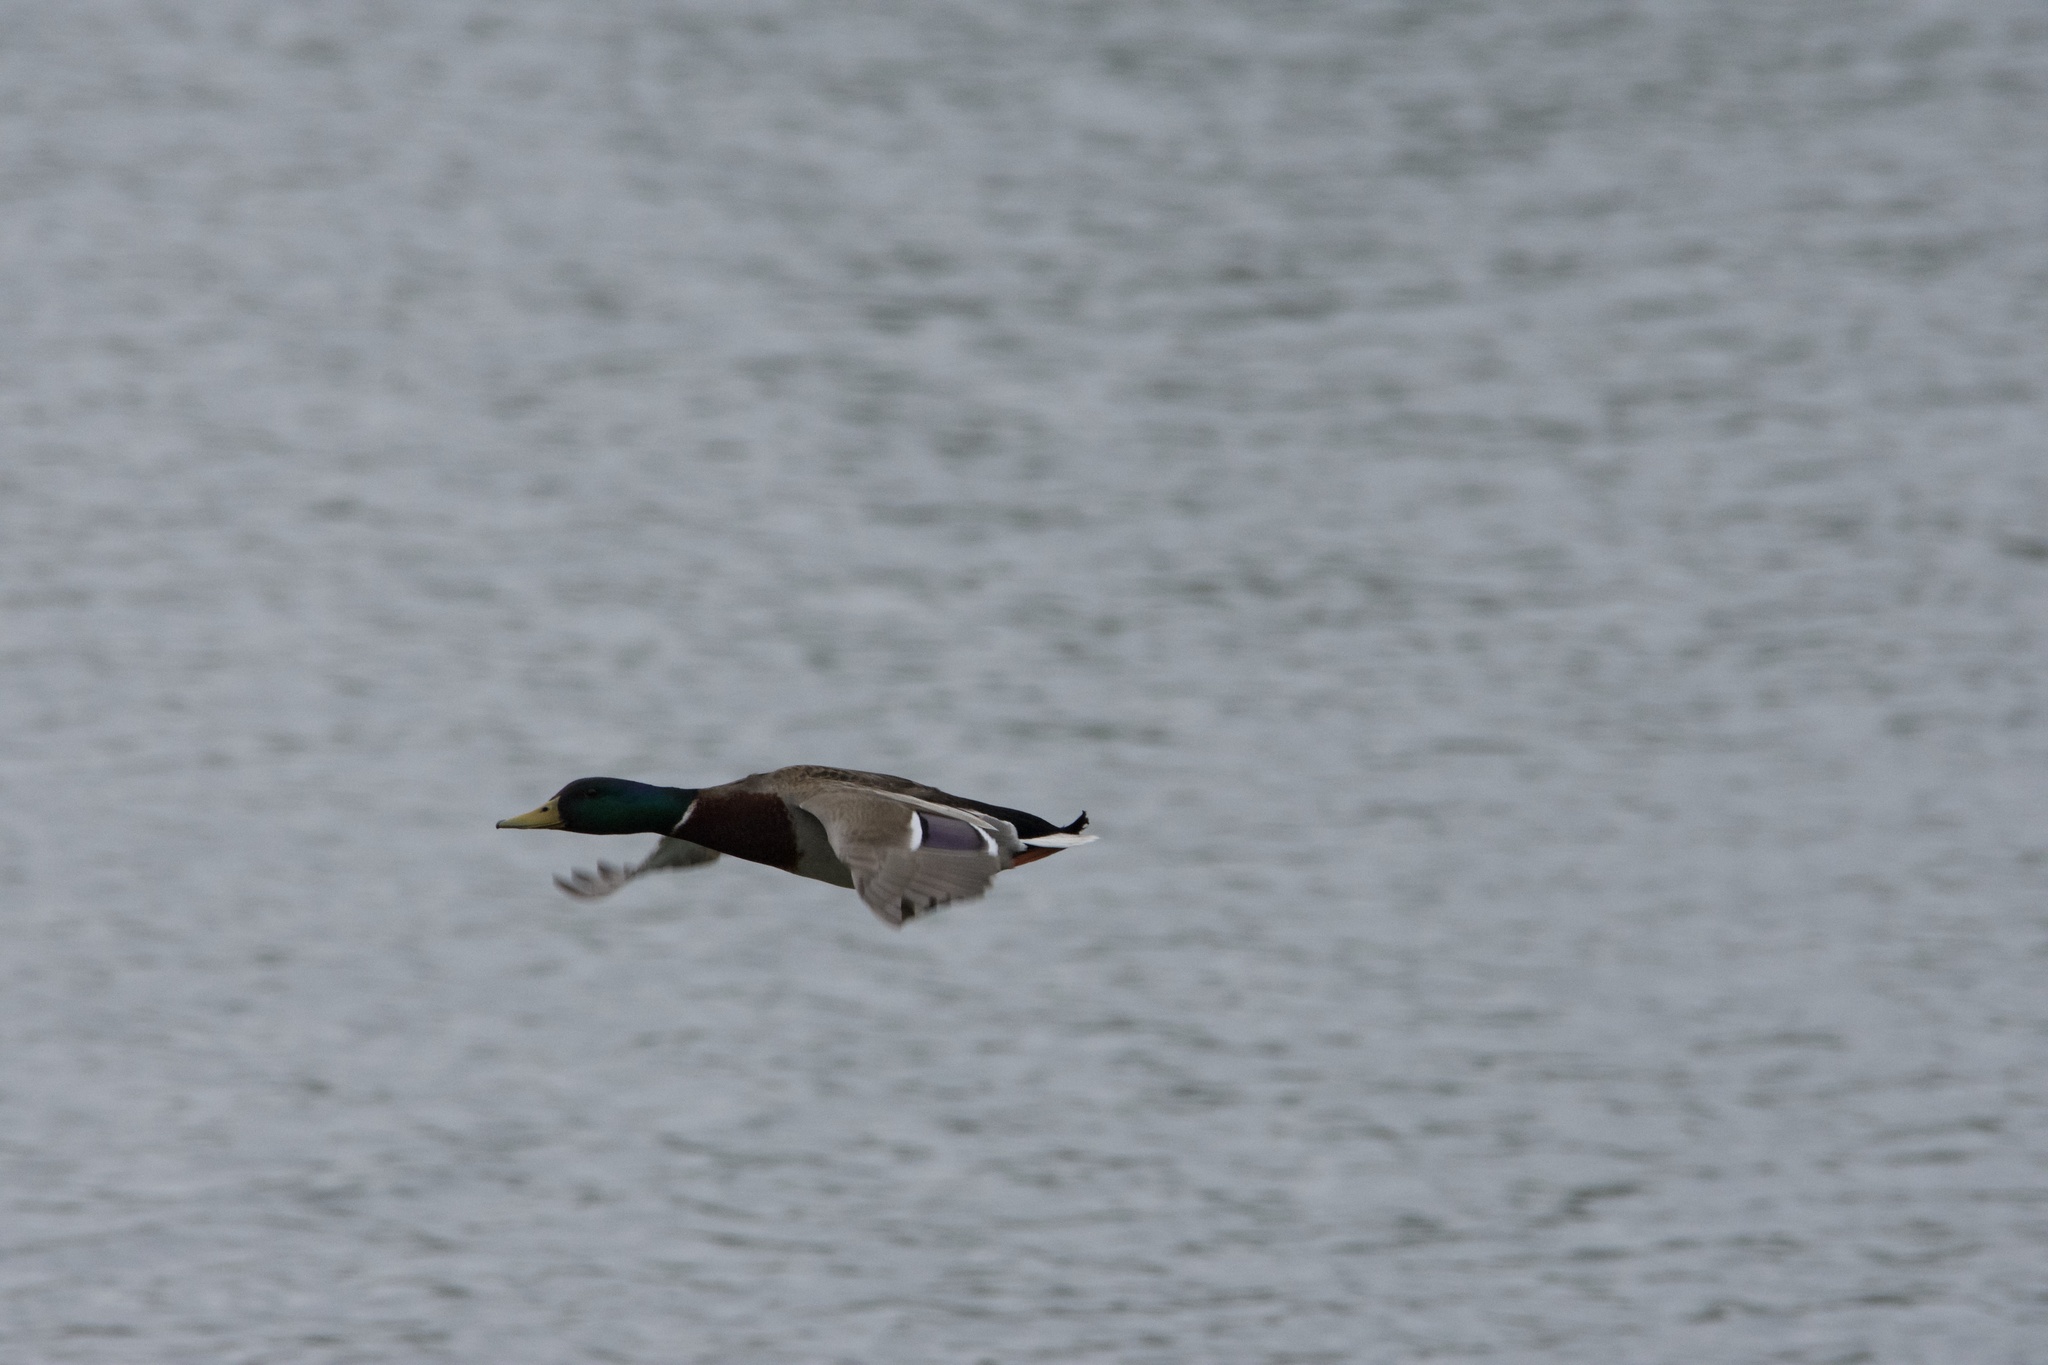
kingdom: Animalia
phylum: Chordata
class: Aves
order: Anseriformes
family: Anatidae
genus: Anas
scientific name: Anas platyrhynchos
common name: Mallard
